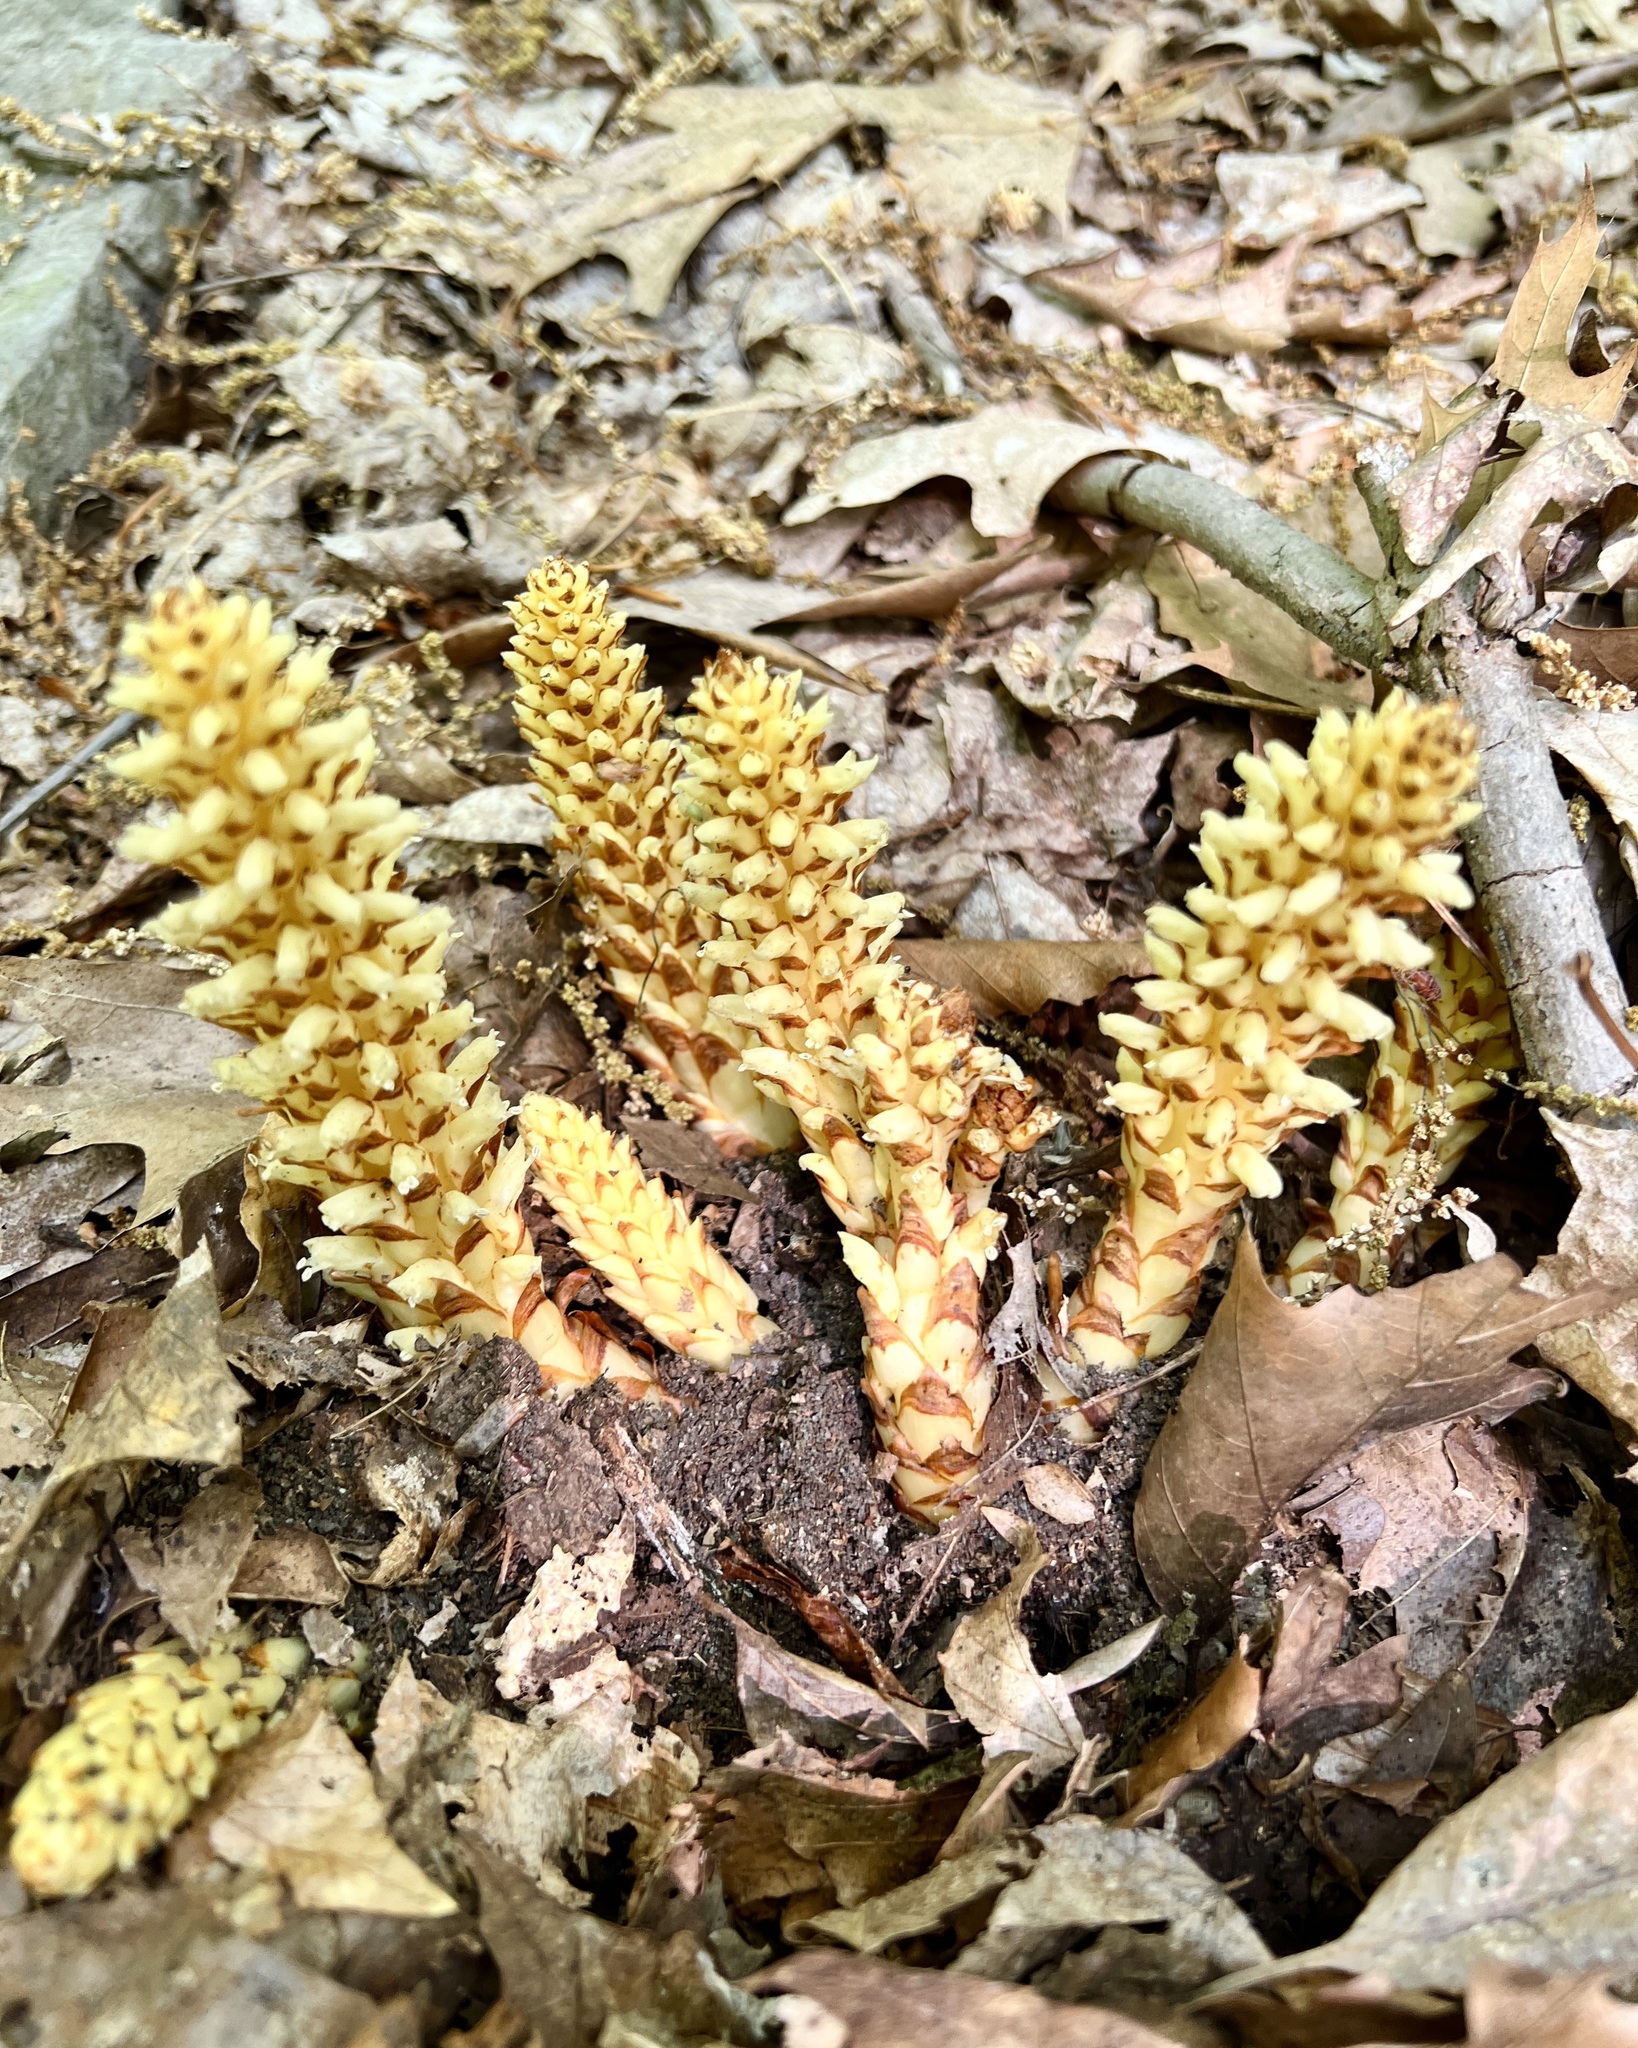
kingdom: Plantae
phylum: Tracheophyta
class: Magnoliopsida
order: Lamiales
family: Orobanchaceae
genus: Conopholis
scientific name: Conopholis americana
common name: American cancer-root
